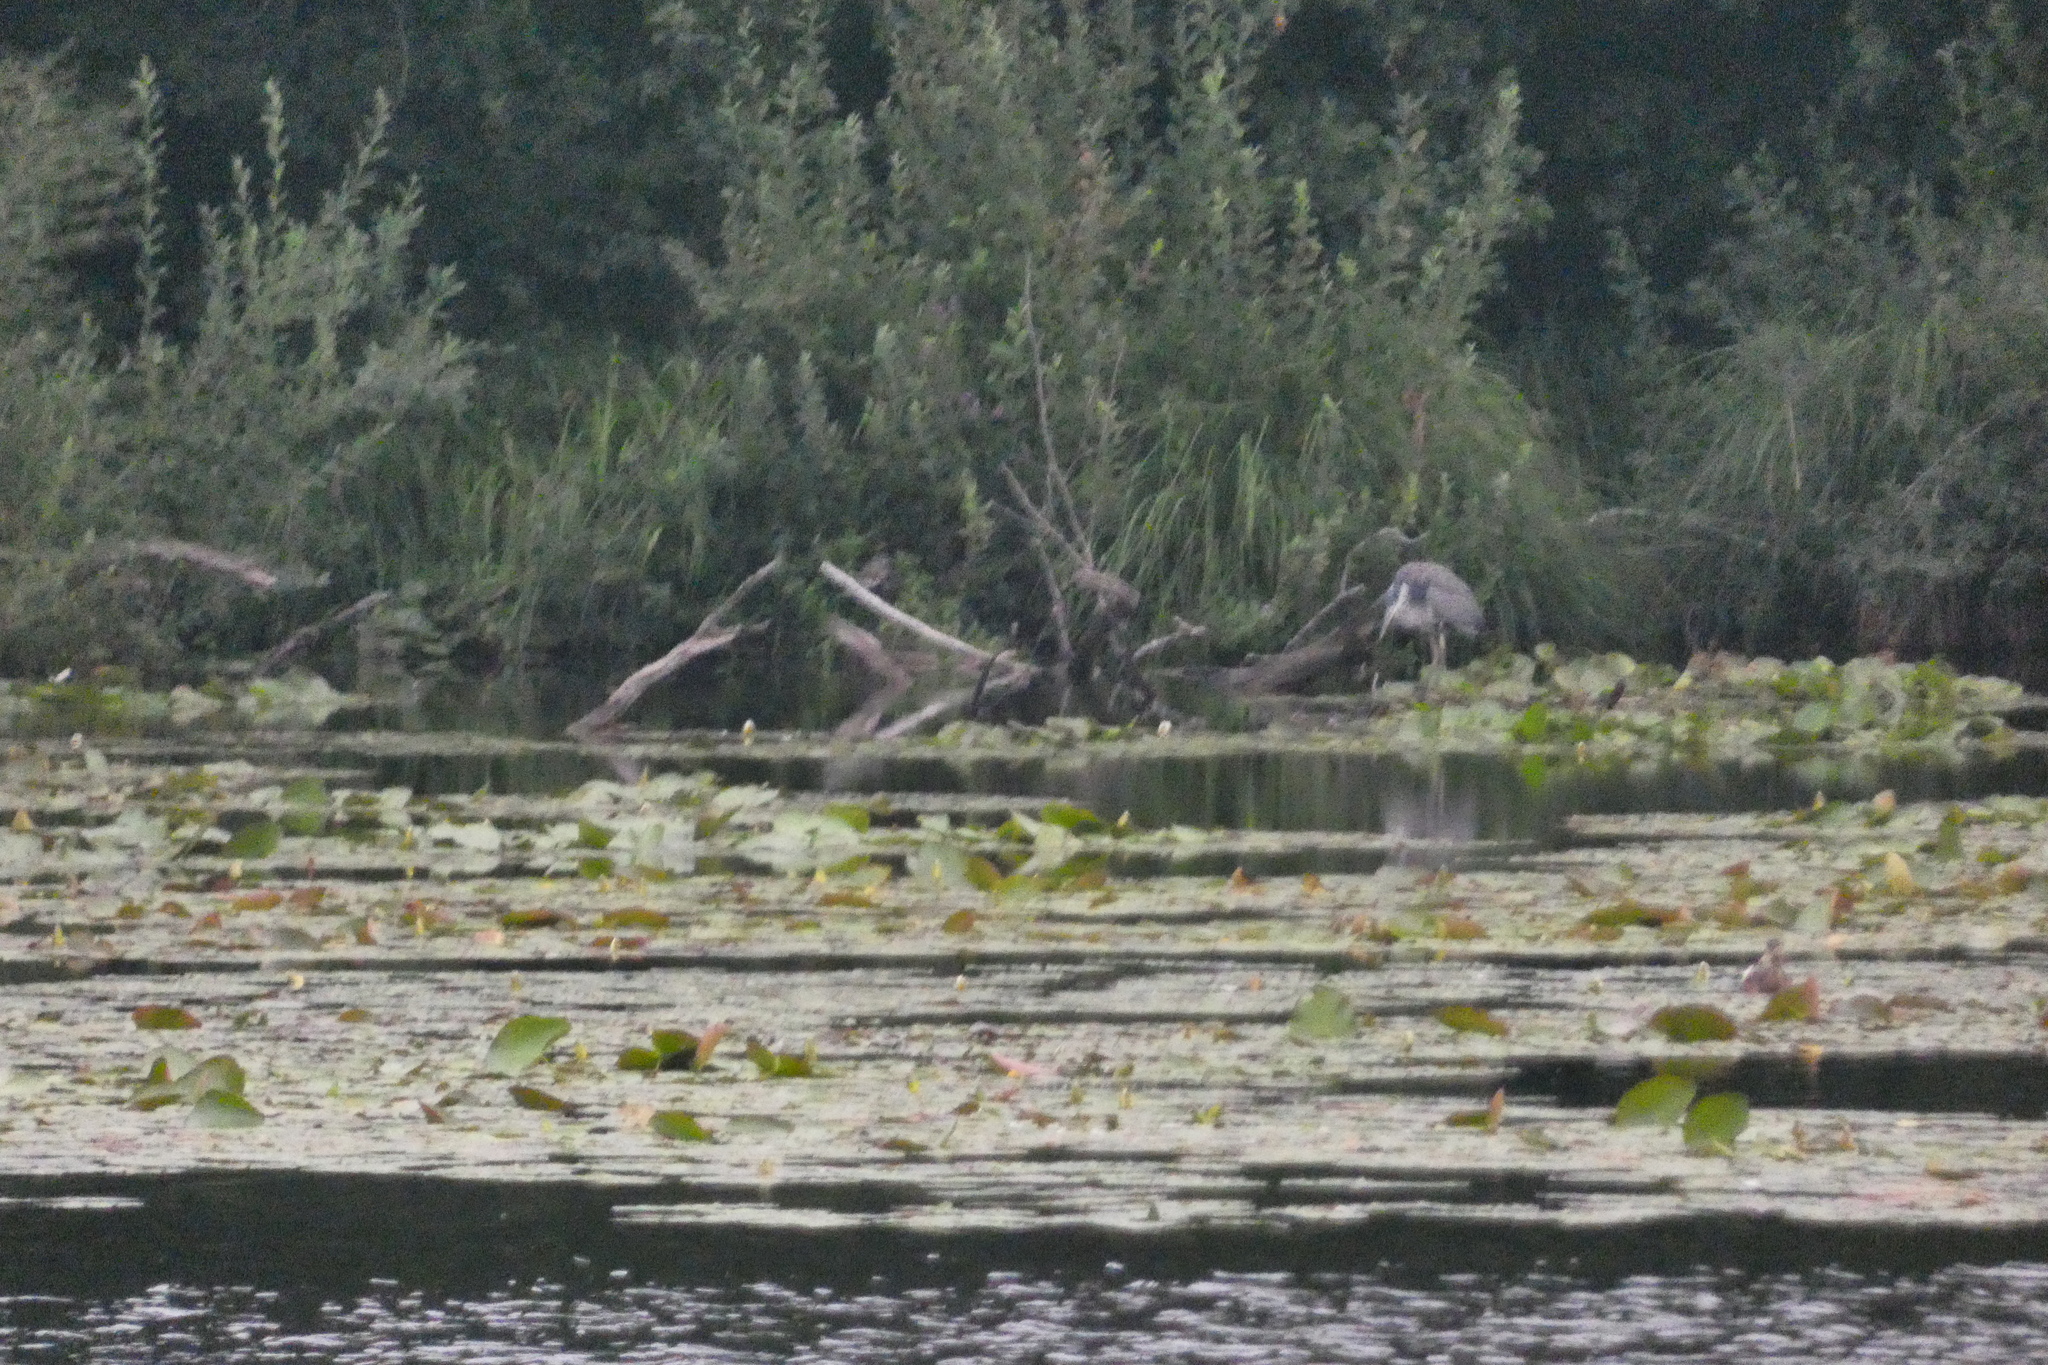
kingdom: Animalia
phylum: Chordata
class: Aves
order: Pelecaniformes
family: Ardeidae
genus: Ardea
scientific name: Ardea cinerea
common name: Grey heron
